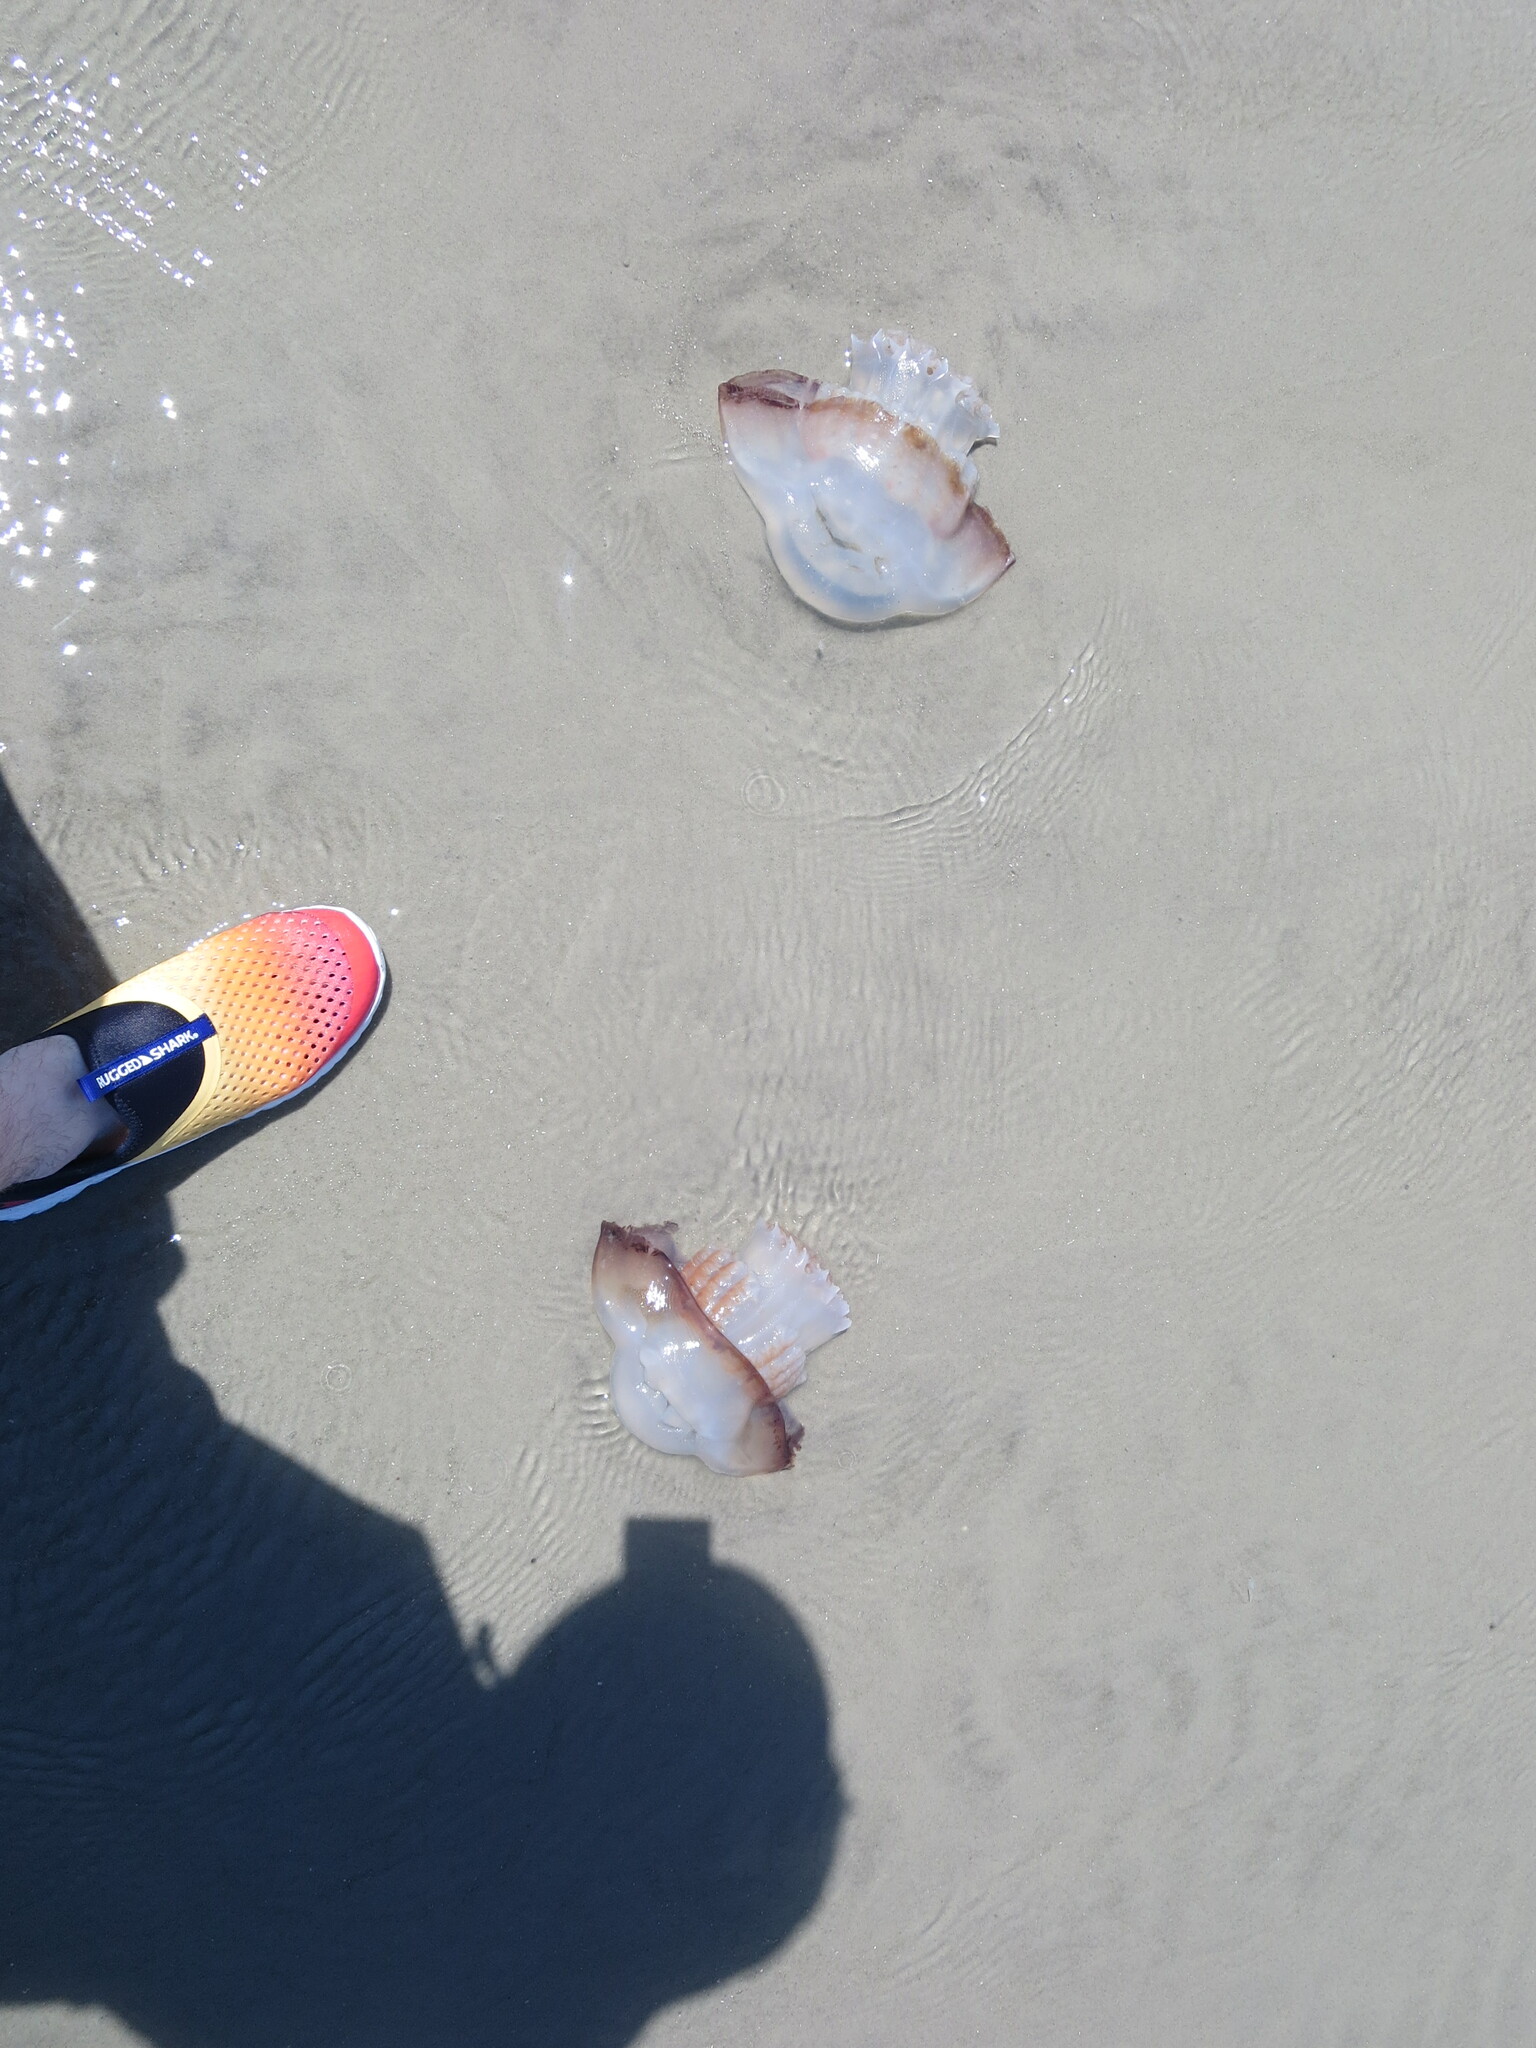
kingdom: Animalia
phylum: Cnidaria
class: Scyphozoa
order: Rhizostomeae
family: Stomolophidae
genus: Stomolophus
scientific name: Stomolophus meleagris
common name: Cabbagehead
